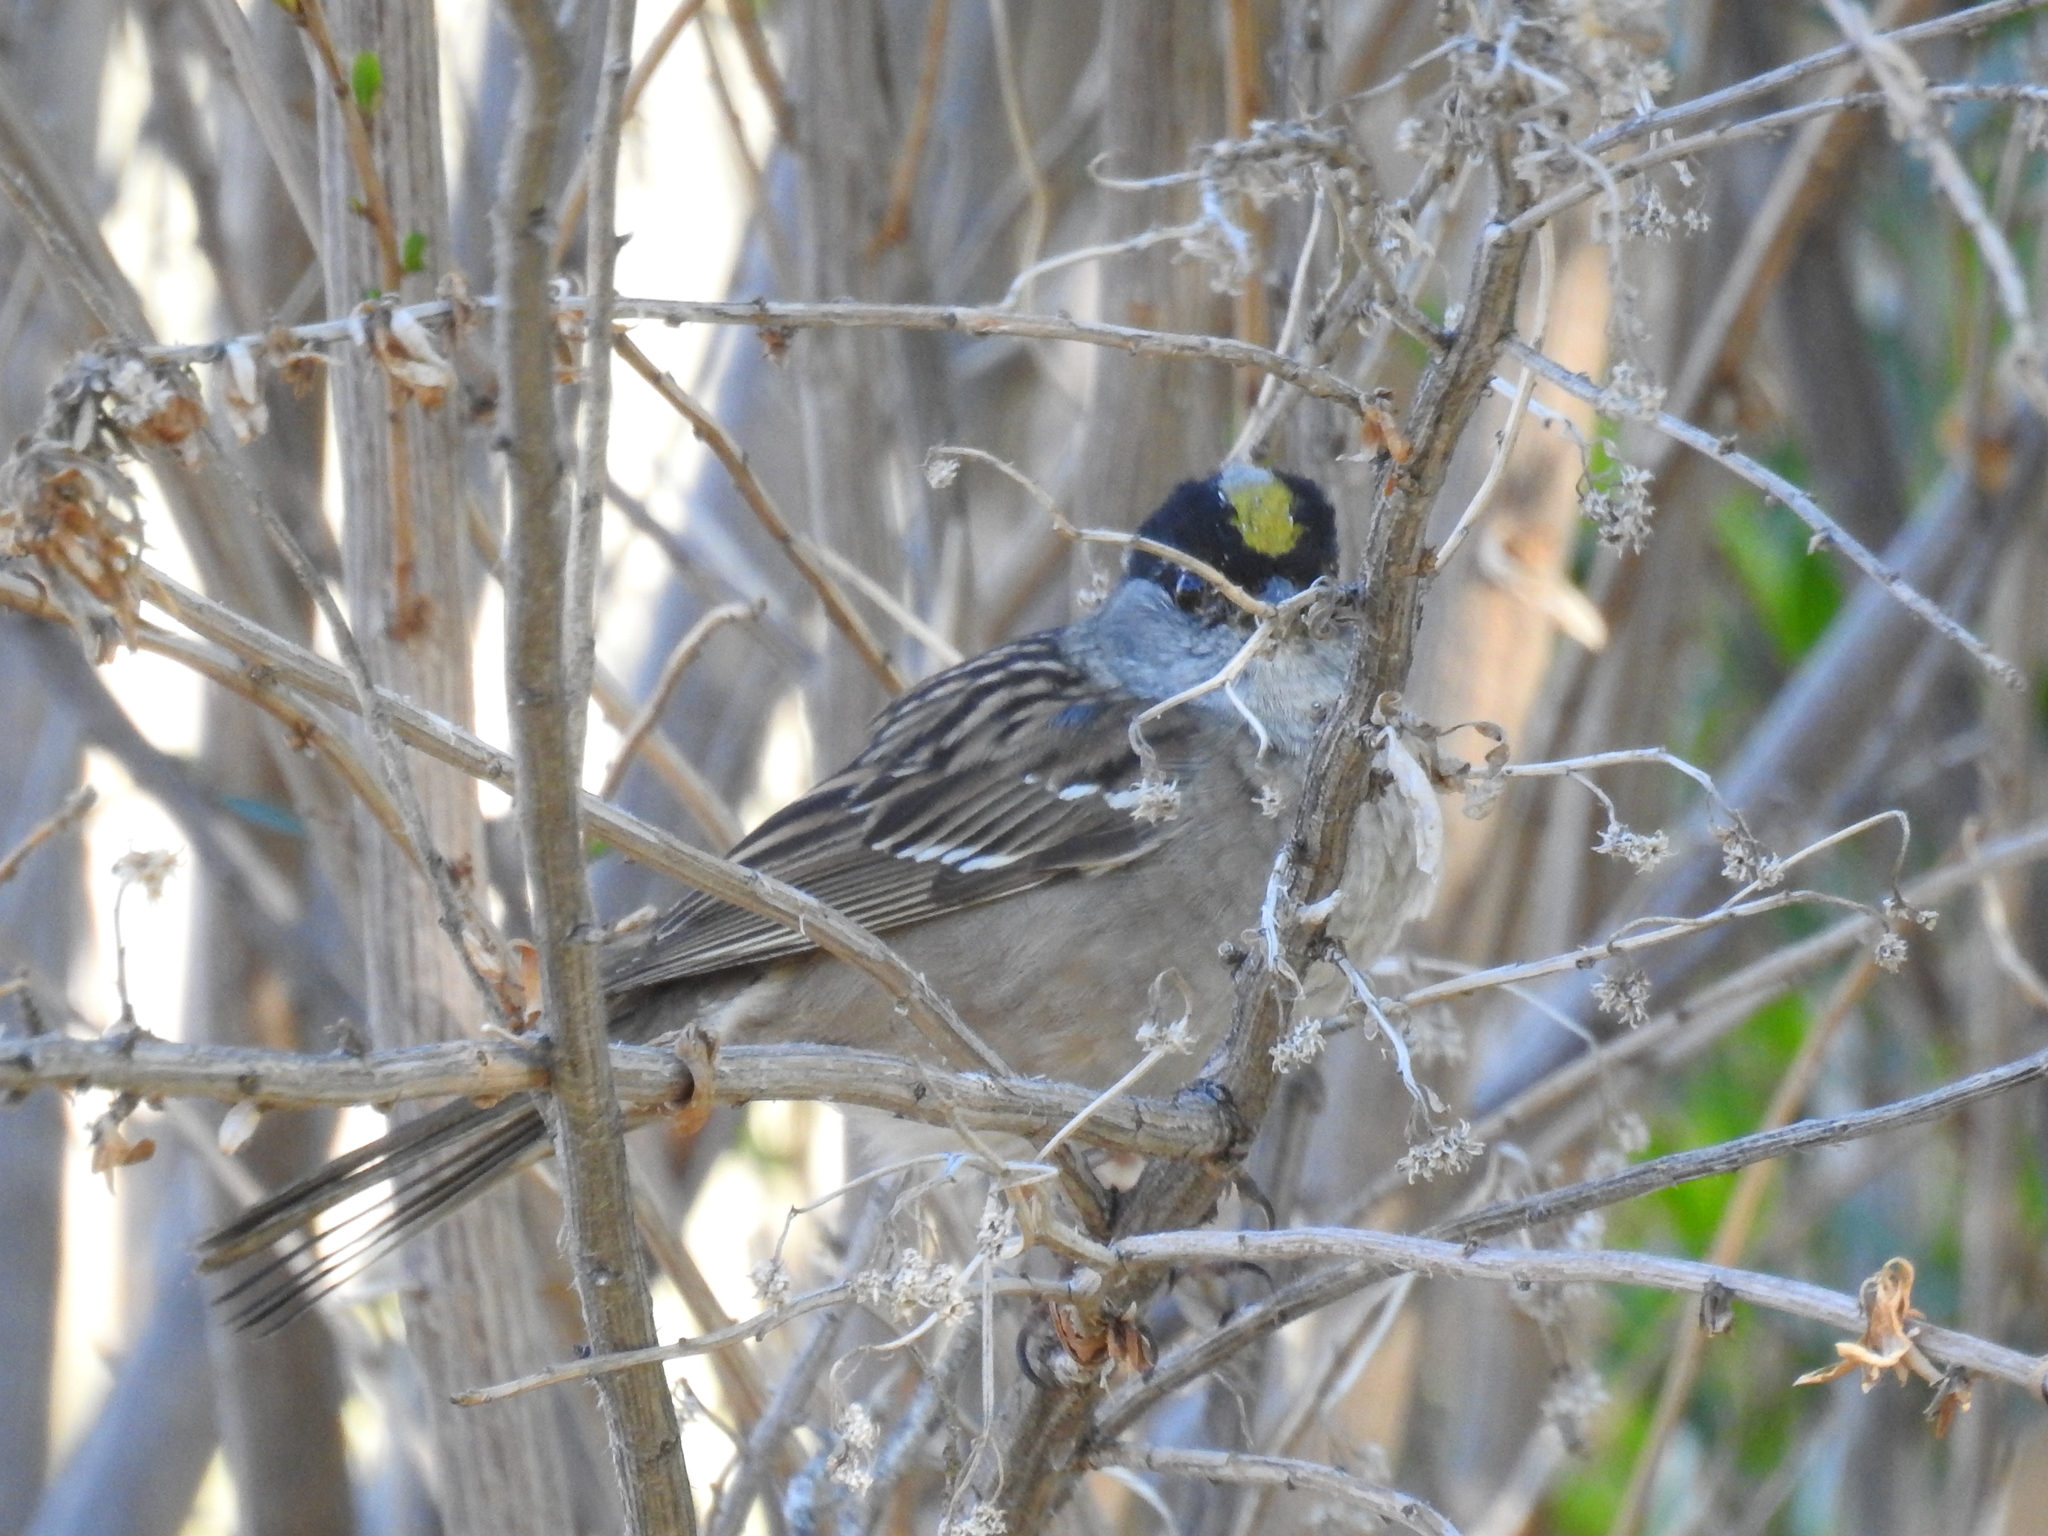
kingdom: Animalia
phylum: Chordata
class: Aves
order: Passeriformes
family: Passerellidae
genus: Zonotrichia
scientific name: Zonotrichia atricapilla
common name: Golden-crowned sparrow
